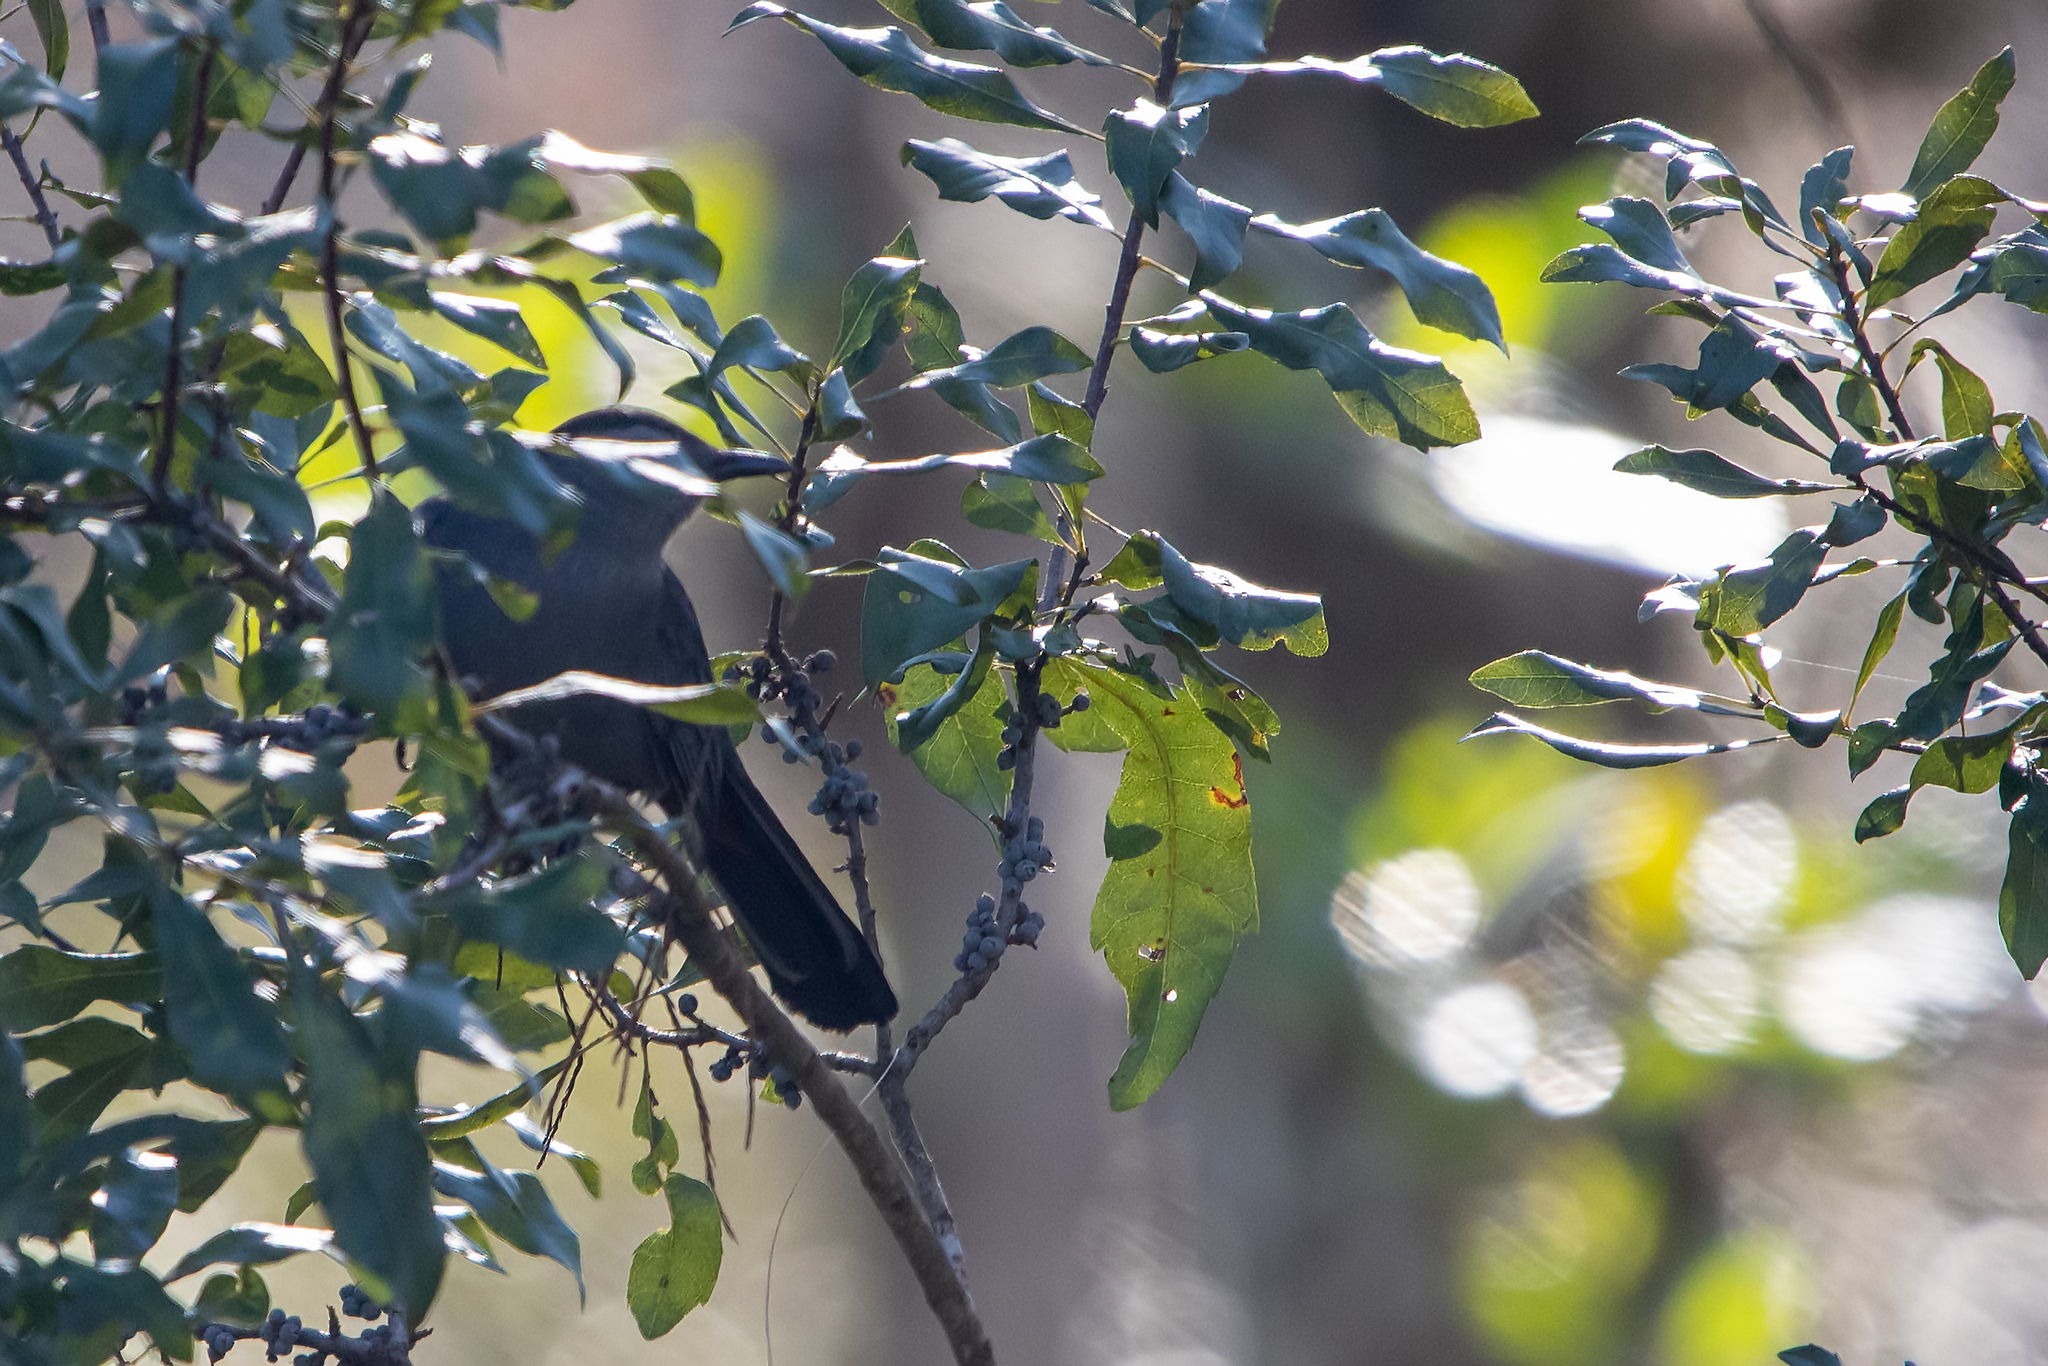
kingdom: Animalia
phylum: Chordata
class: Aves
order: Passeriformes
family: Mimidae
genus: Dumetella
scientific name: Dumetella carolinensis
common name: Gray catbird
